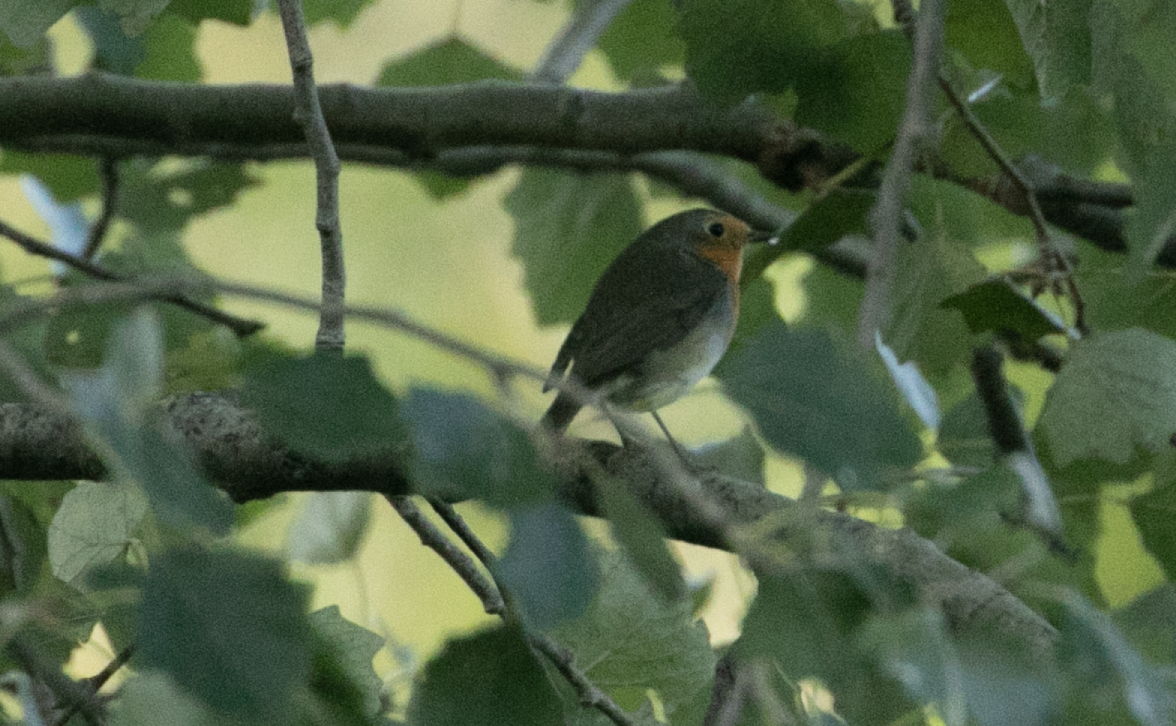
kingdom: Animalia
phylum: Chordata
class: Aves
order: Passeriformes
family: Muscicapidae
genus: Erithacus
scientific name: Erithacus rubecula
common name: European robin
